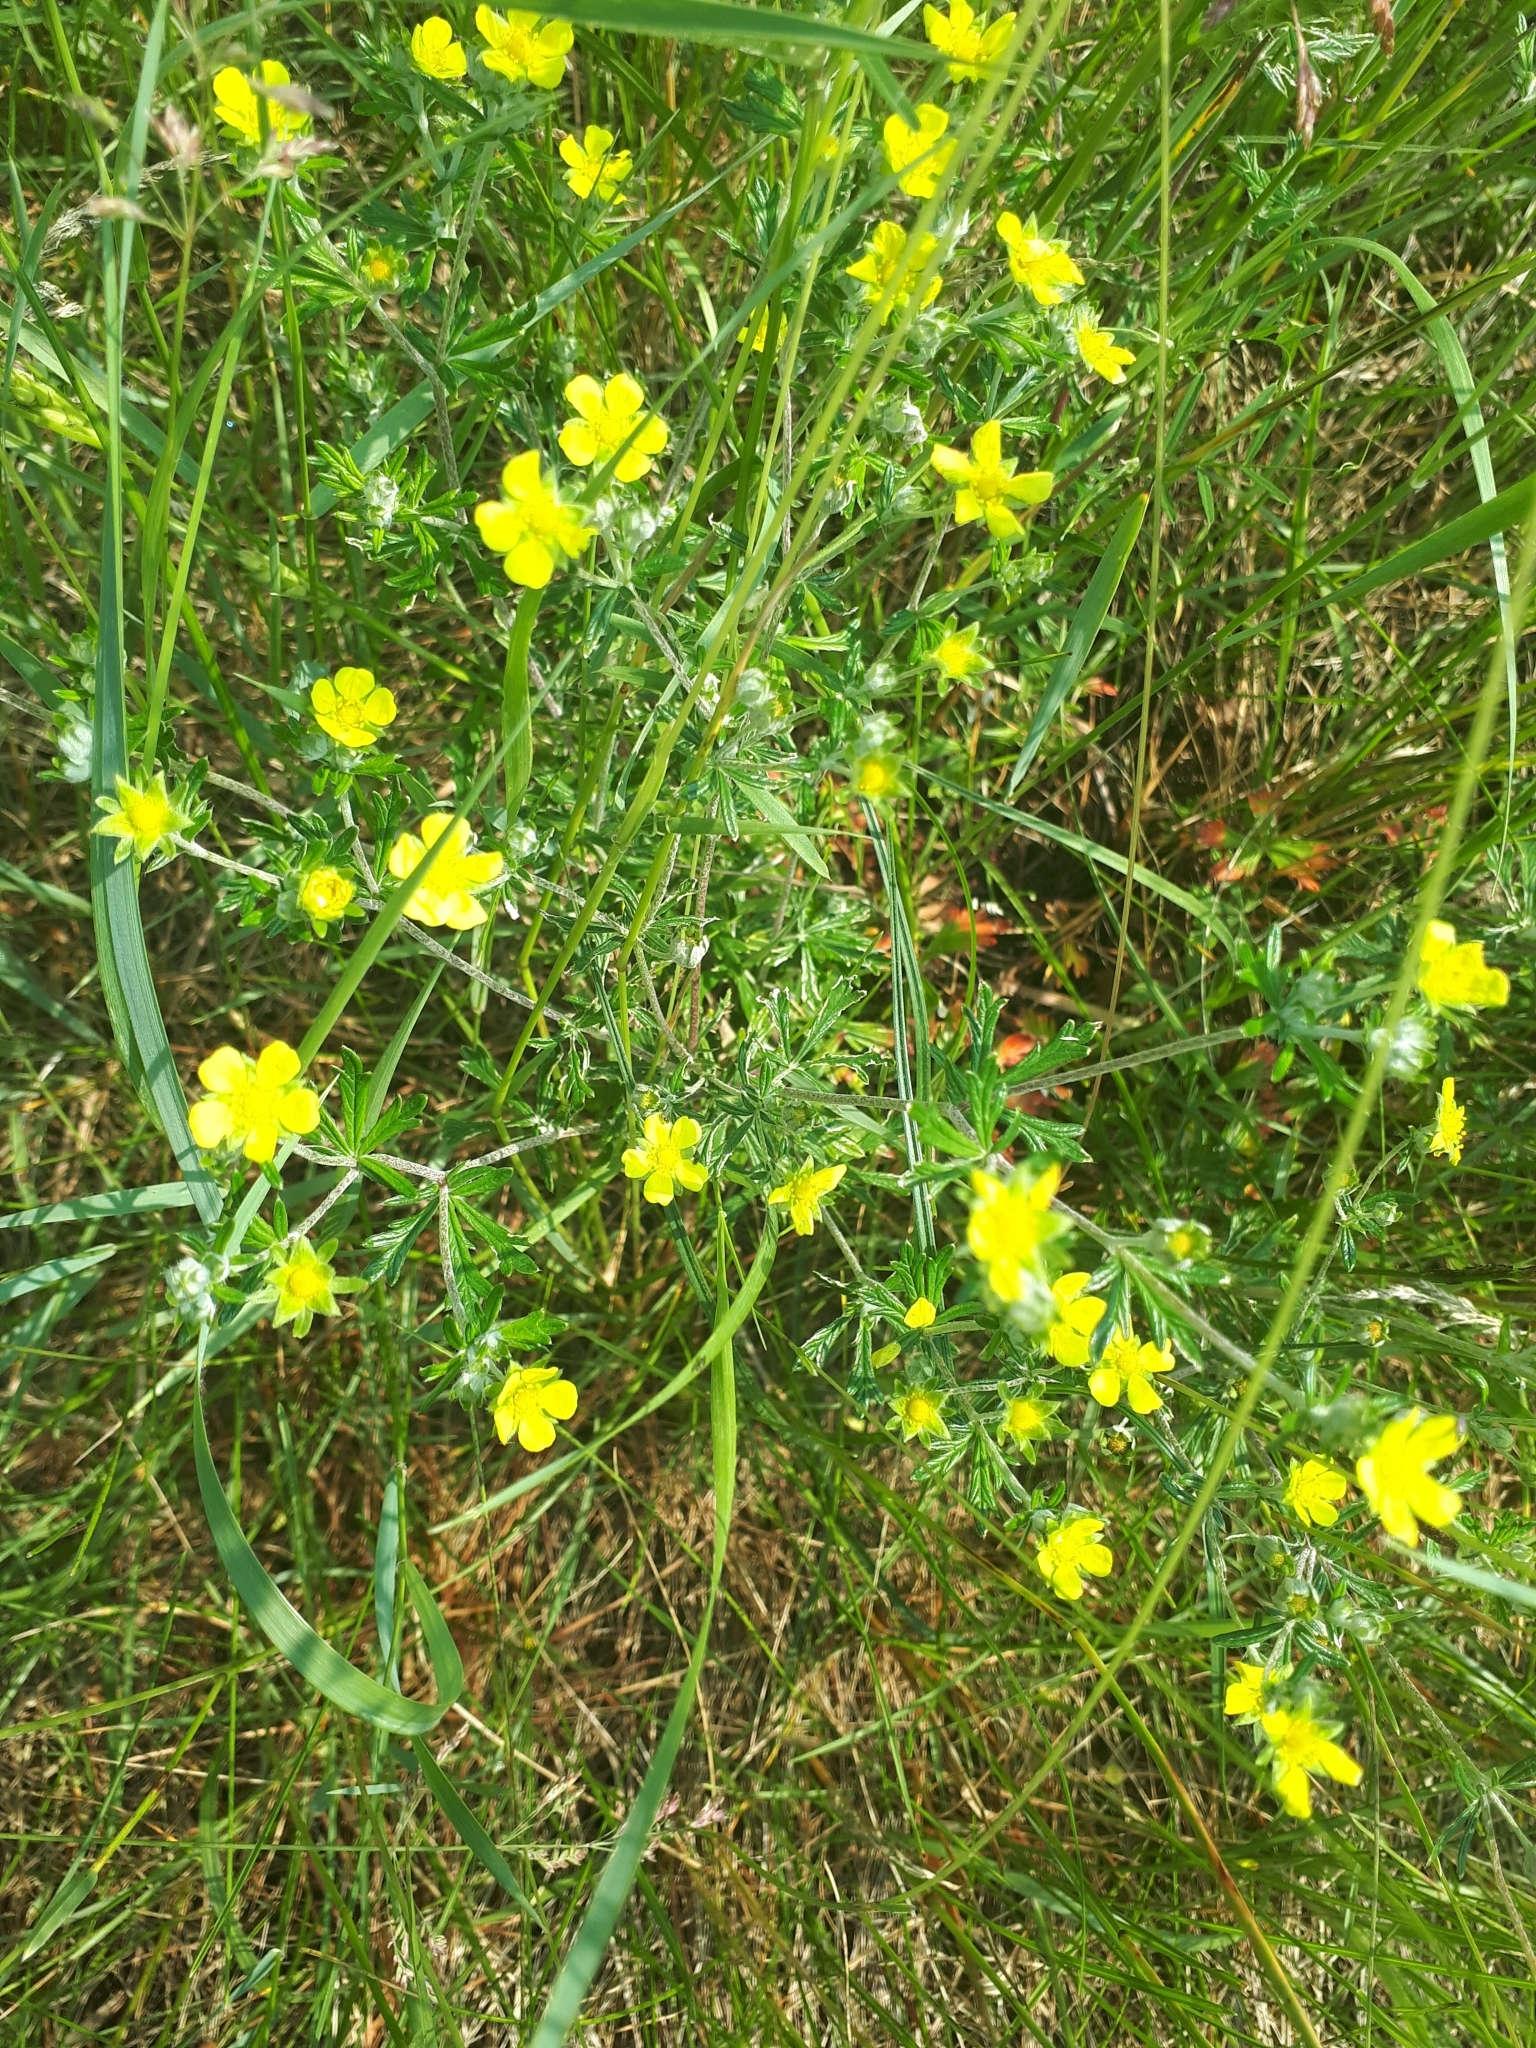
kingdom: Plantae
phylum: Tracheophyta
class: Magnoliopsida
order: Rosales
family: Rosaceae
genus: Potentilla
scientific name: Potentilla argentea
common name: Hoary cinquefoil
